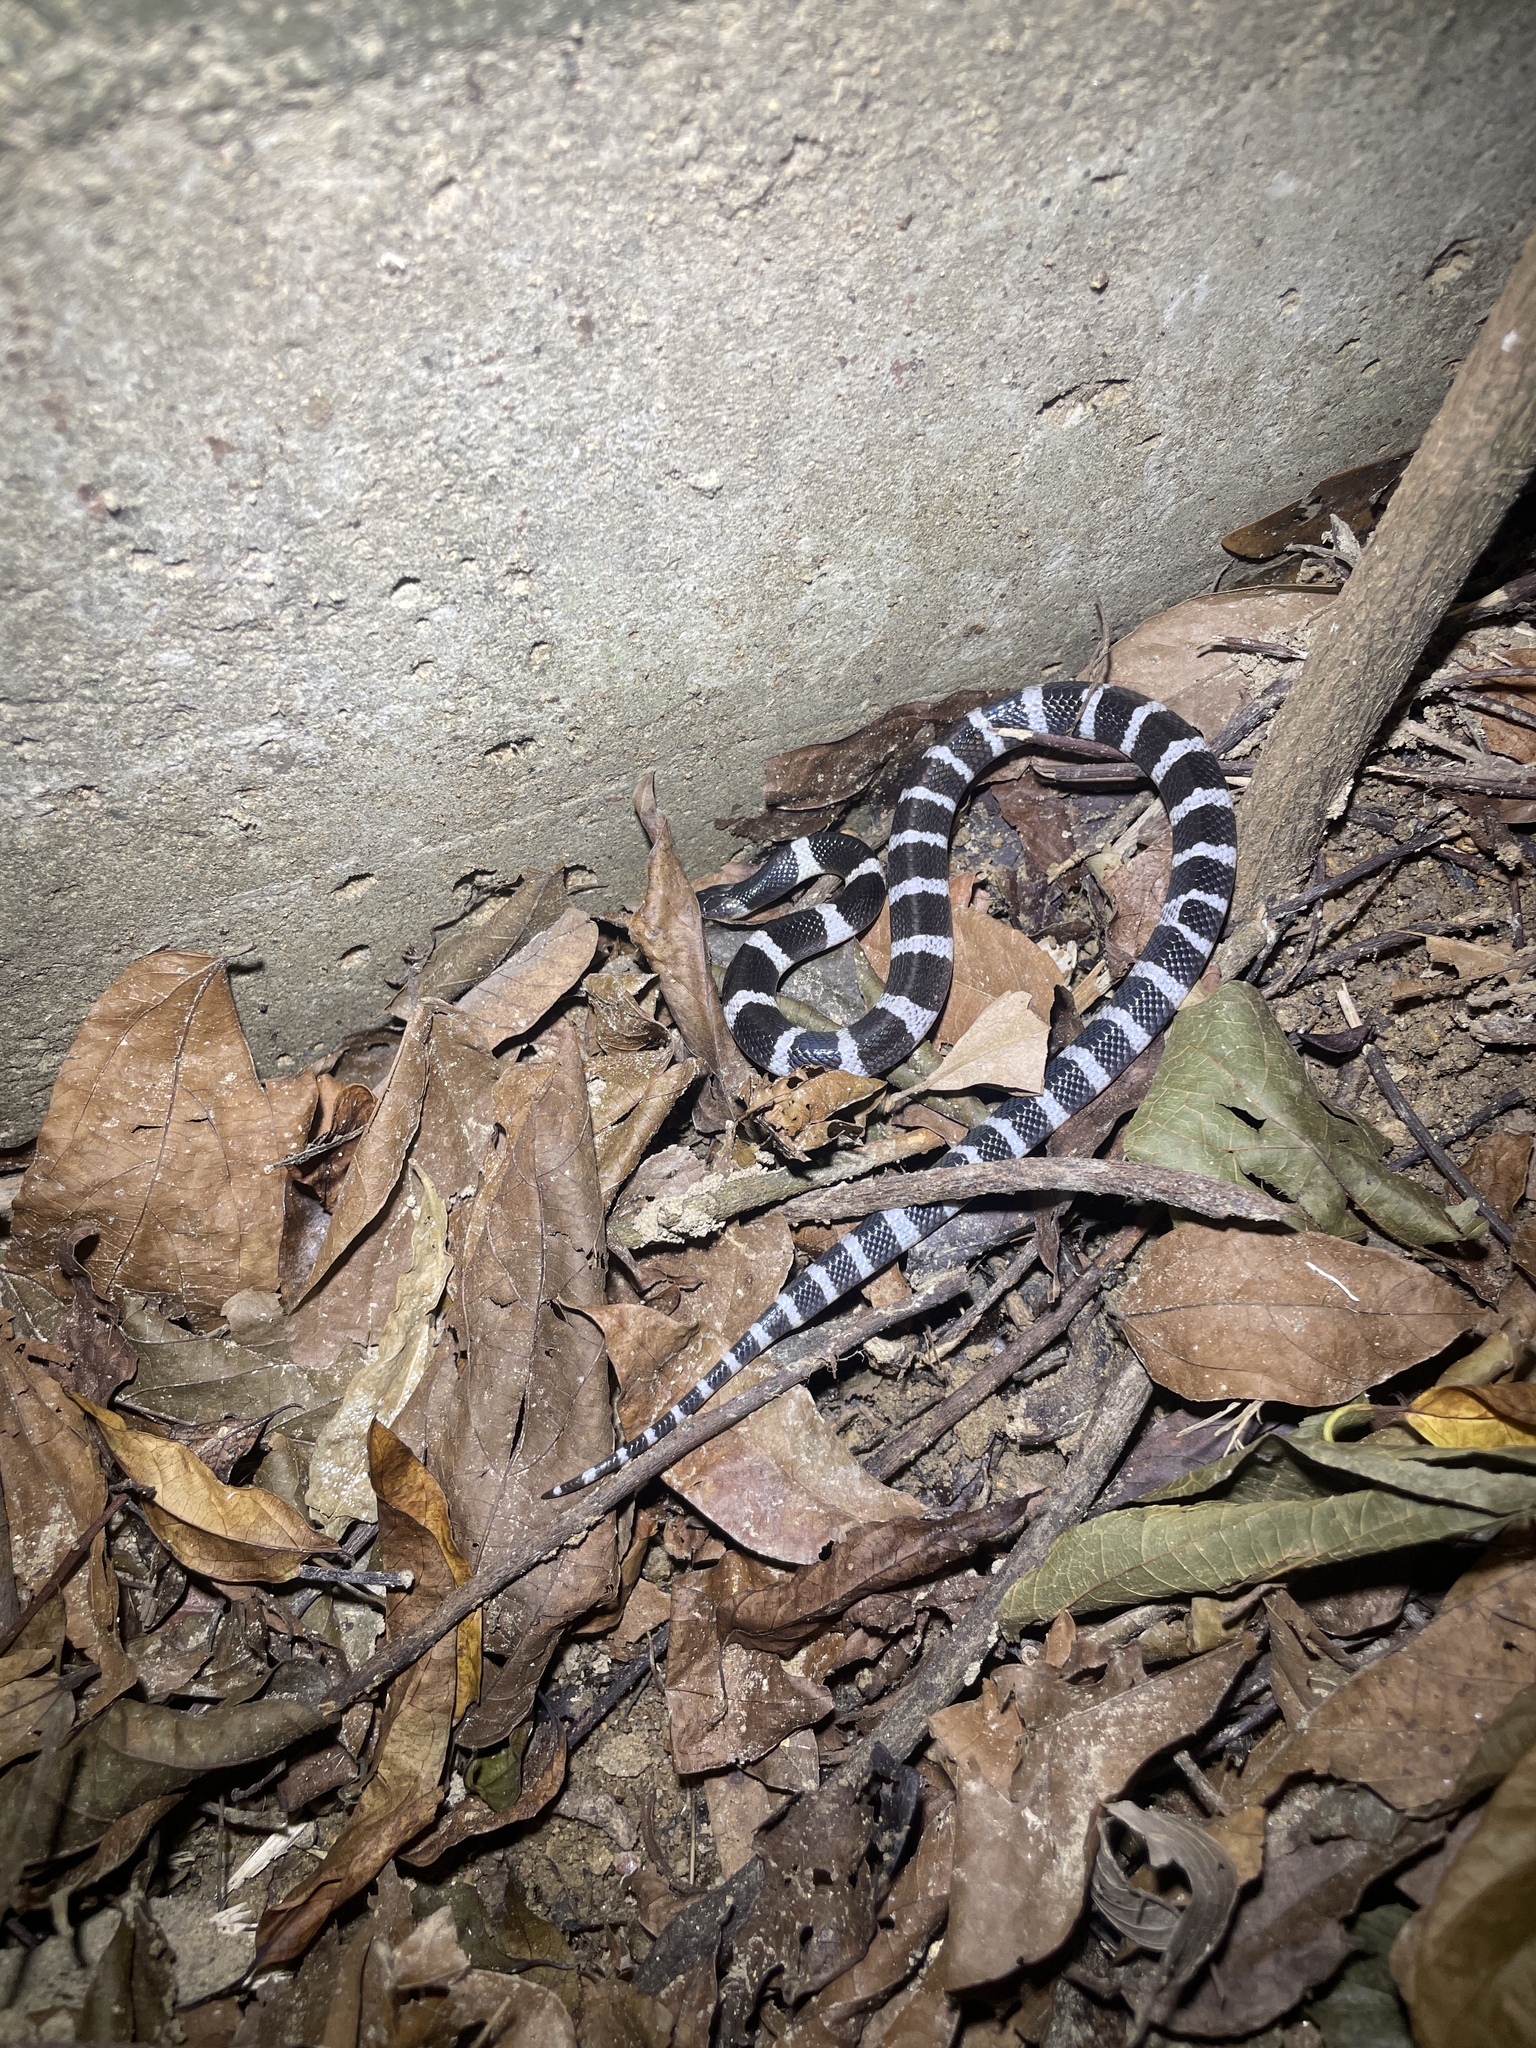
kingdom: Animalia
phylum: Chordata
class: Squamata
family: Elapidae
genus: Bungarus
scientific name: Bungarus multicinctus
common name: Many-banded krait
